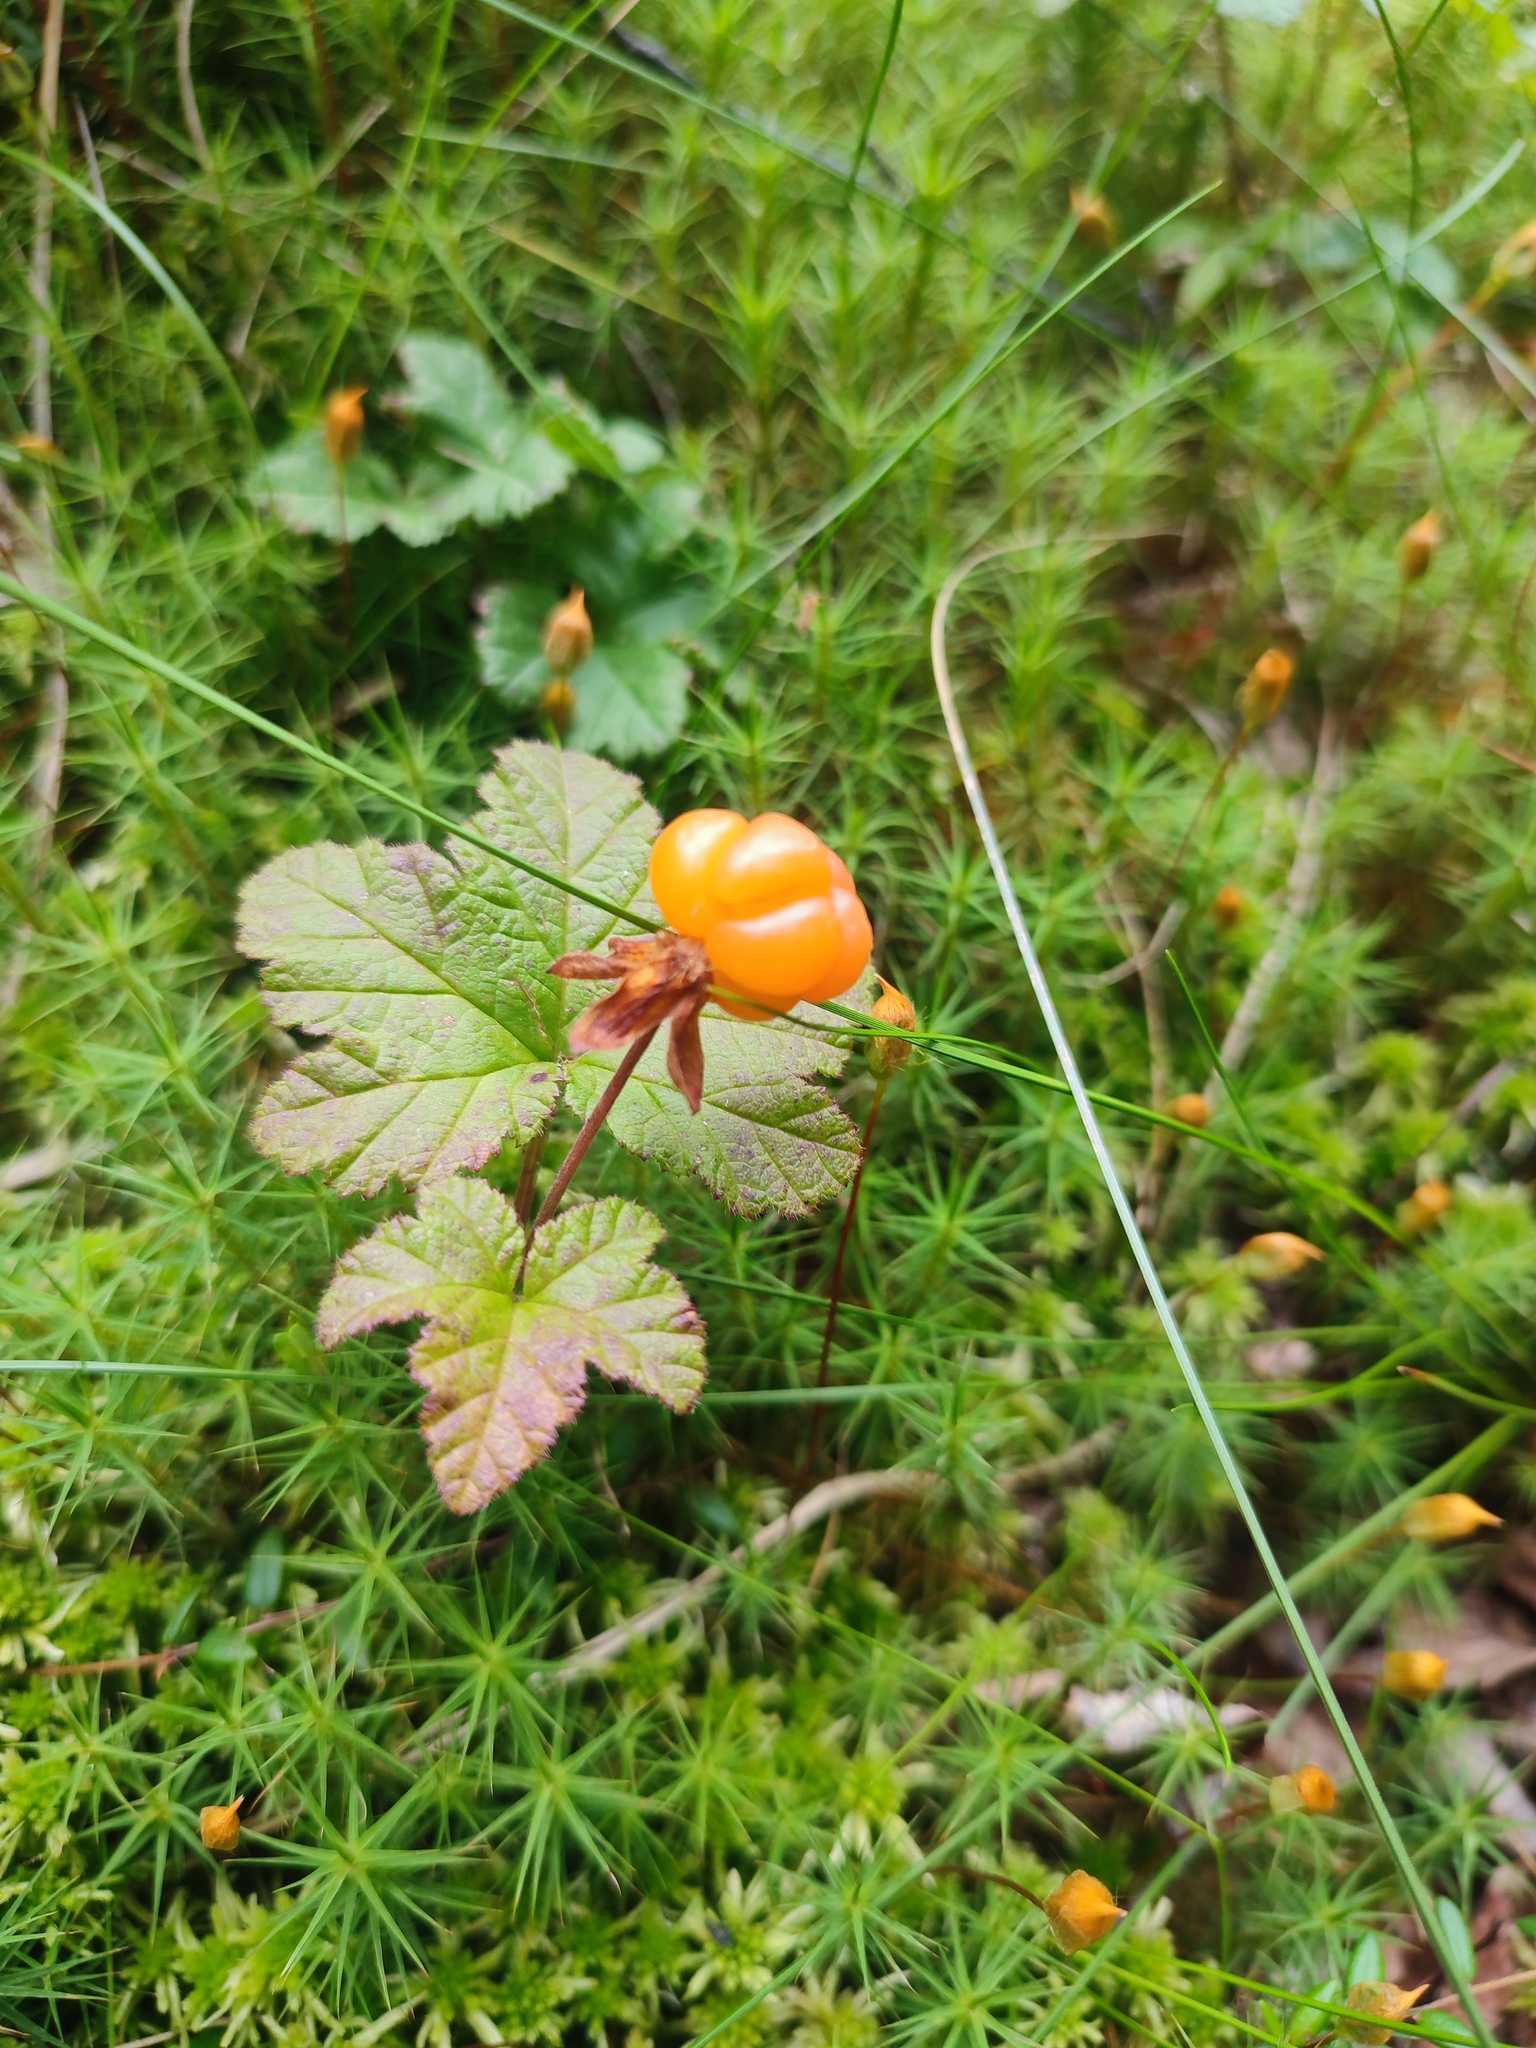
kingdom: Plantae
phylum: Tracheophyta
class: Magnoliopsida
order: Rosales
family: Rosaceae
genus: Rubus
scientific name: Rubus chamaemorus
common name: Cloudberry
